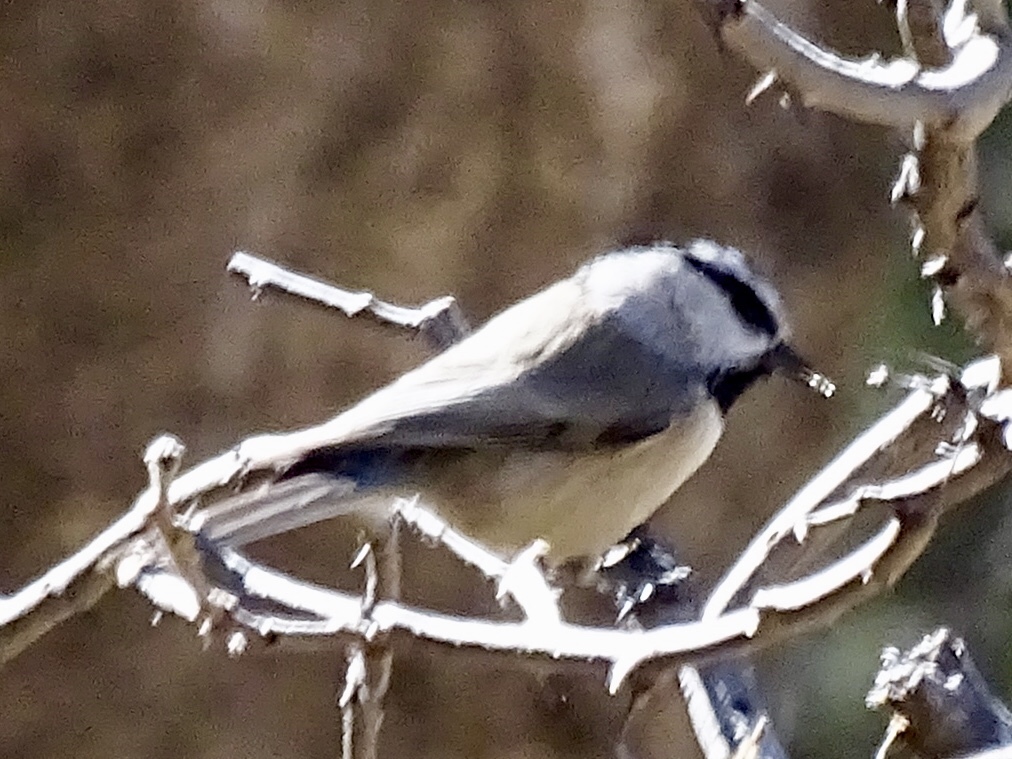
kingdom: Animalia
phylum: Chordata
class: Aves
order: Passeriformes
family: Paridae
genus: Poecile
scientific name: Poecile gambeli
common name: Mountain chickadee
